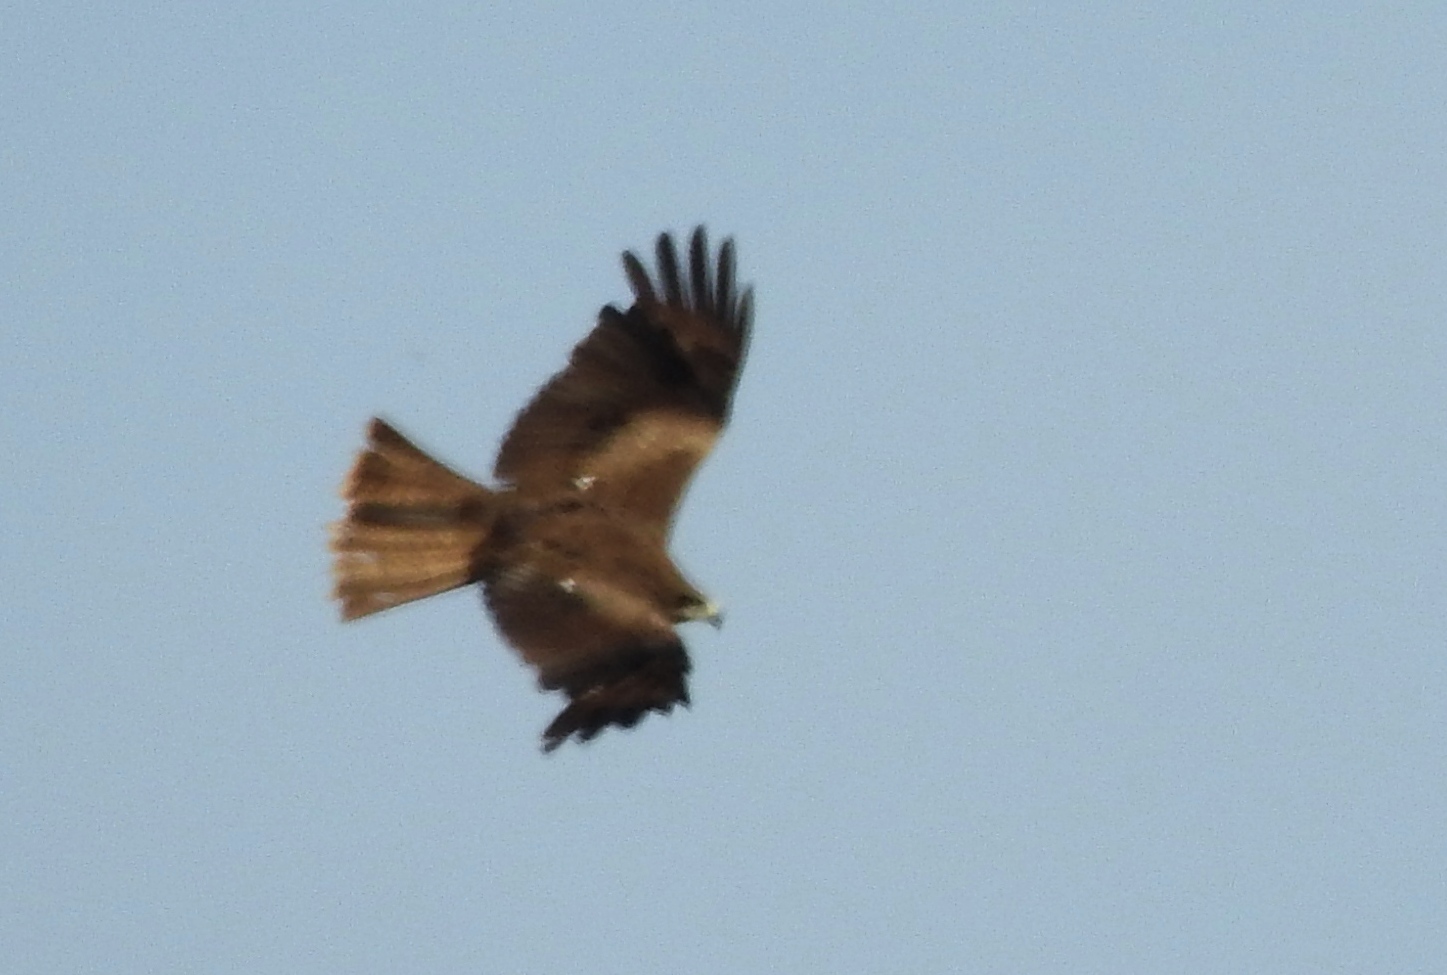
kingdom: Animalia
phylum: Chordata
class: Aves
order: Accipitriformes
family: Accipitridae
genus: Milvus
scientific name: Milvus migrans
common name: Black kite
